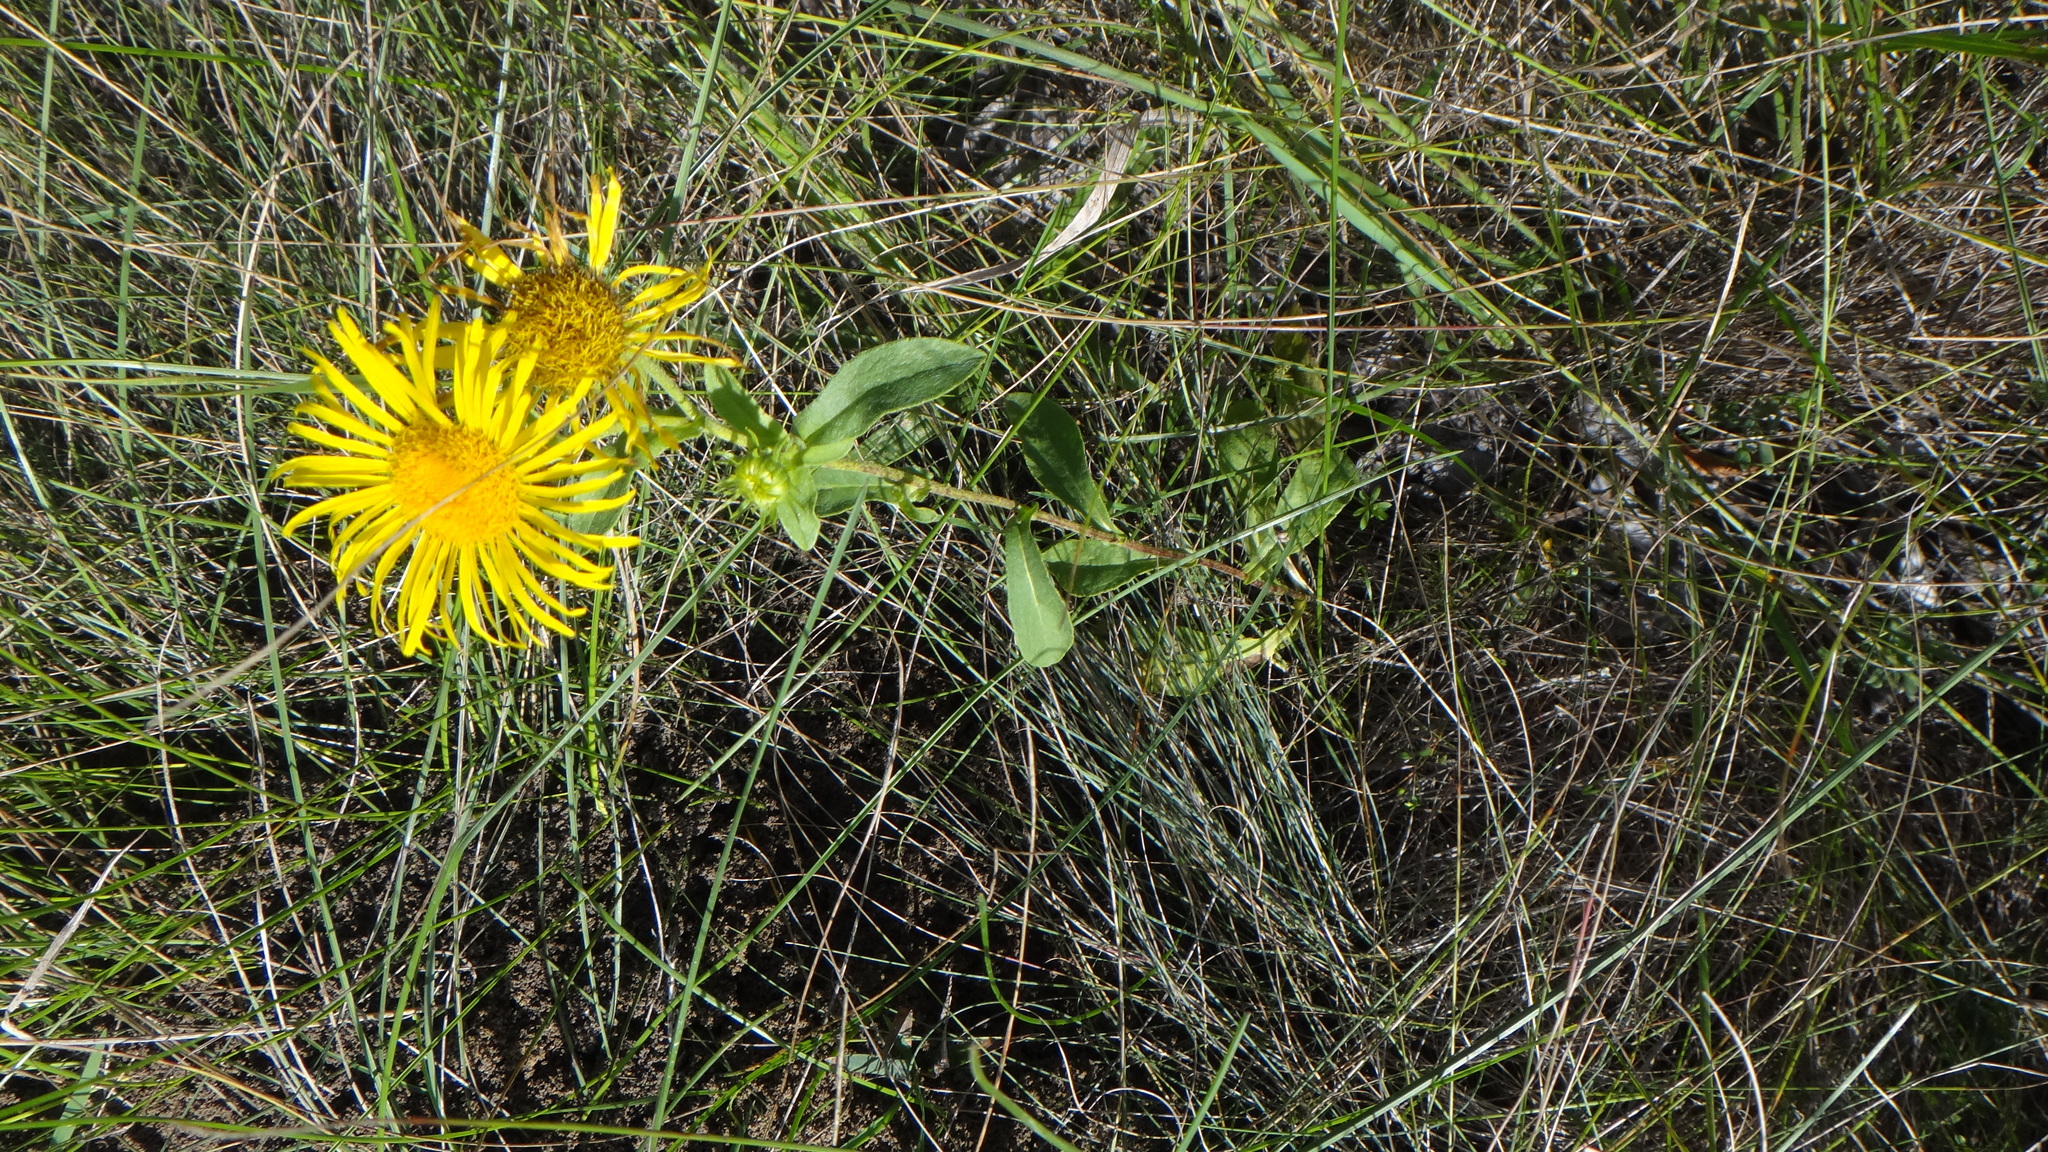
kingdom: Plantae
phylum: Tracheophyta
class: Magnoliopsida
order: Asterales
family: Asteraceae
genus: Pentanema
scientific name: Pentanema britannicum
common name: British elecampane
